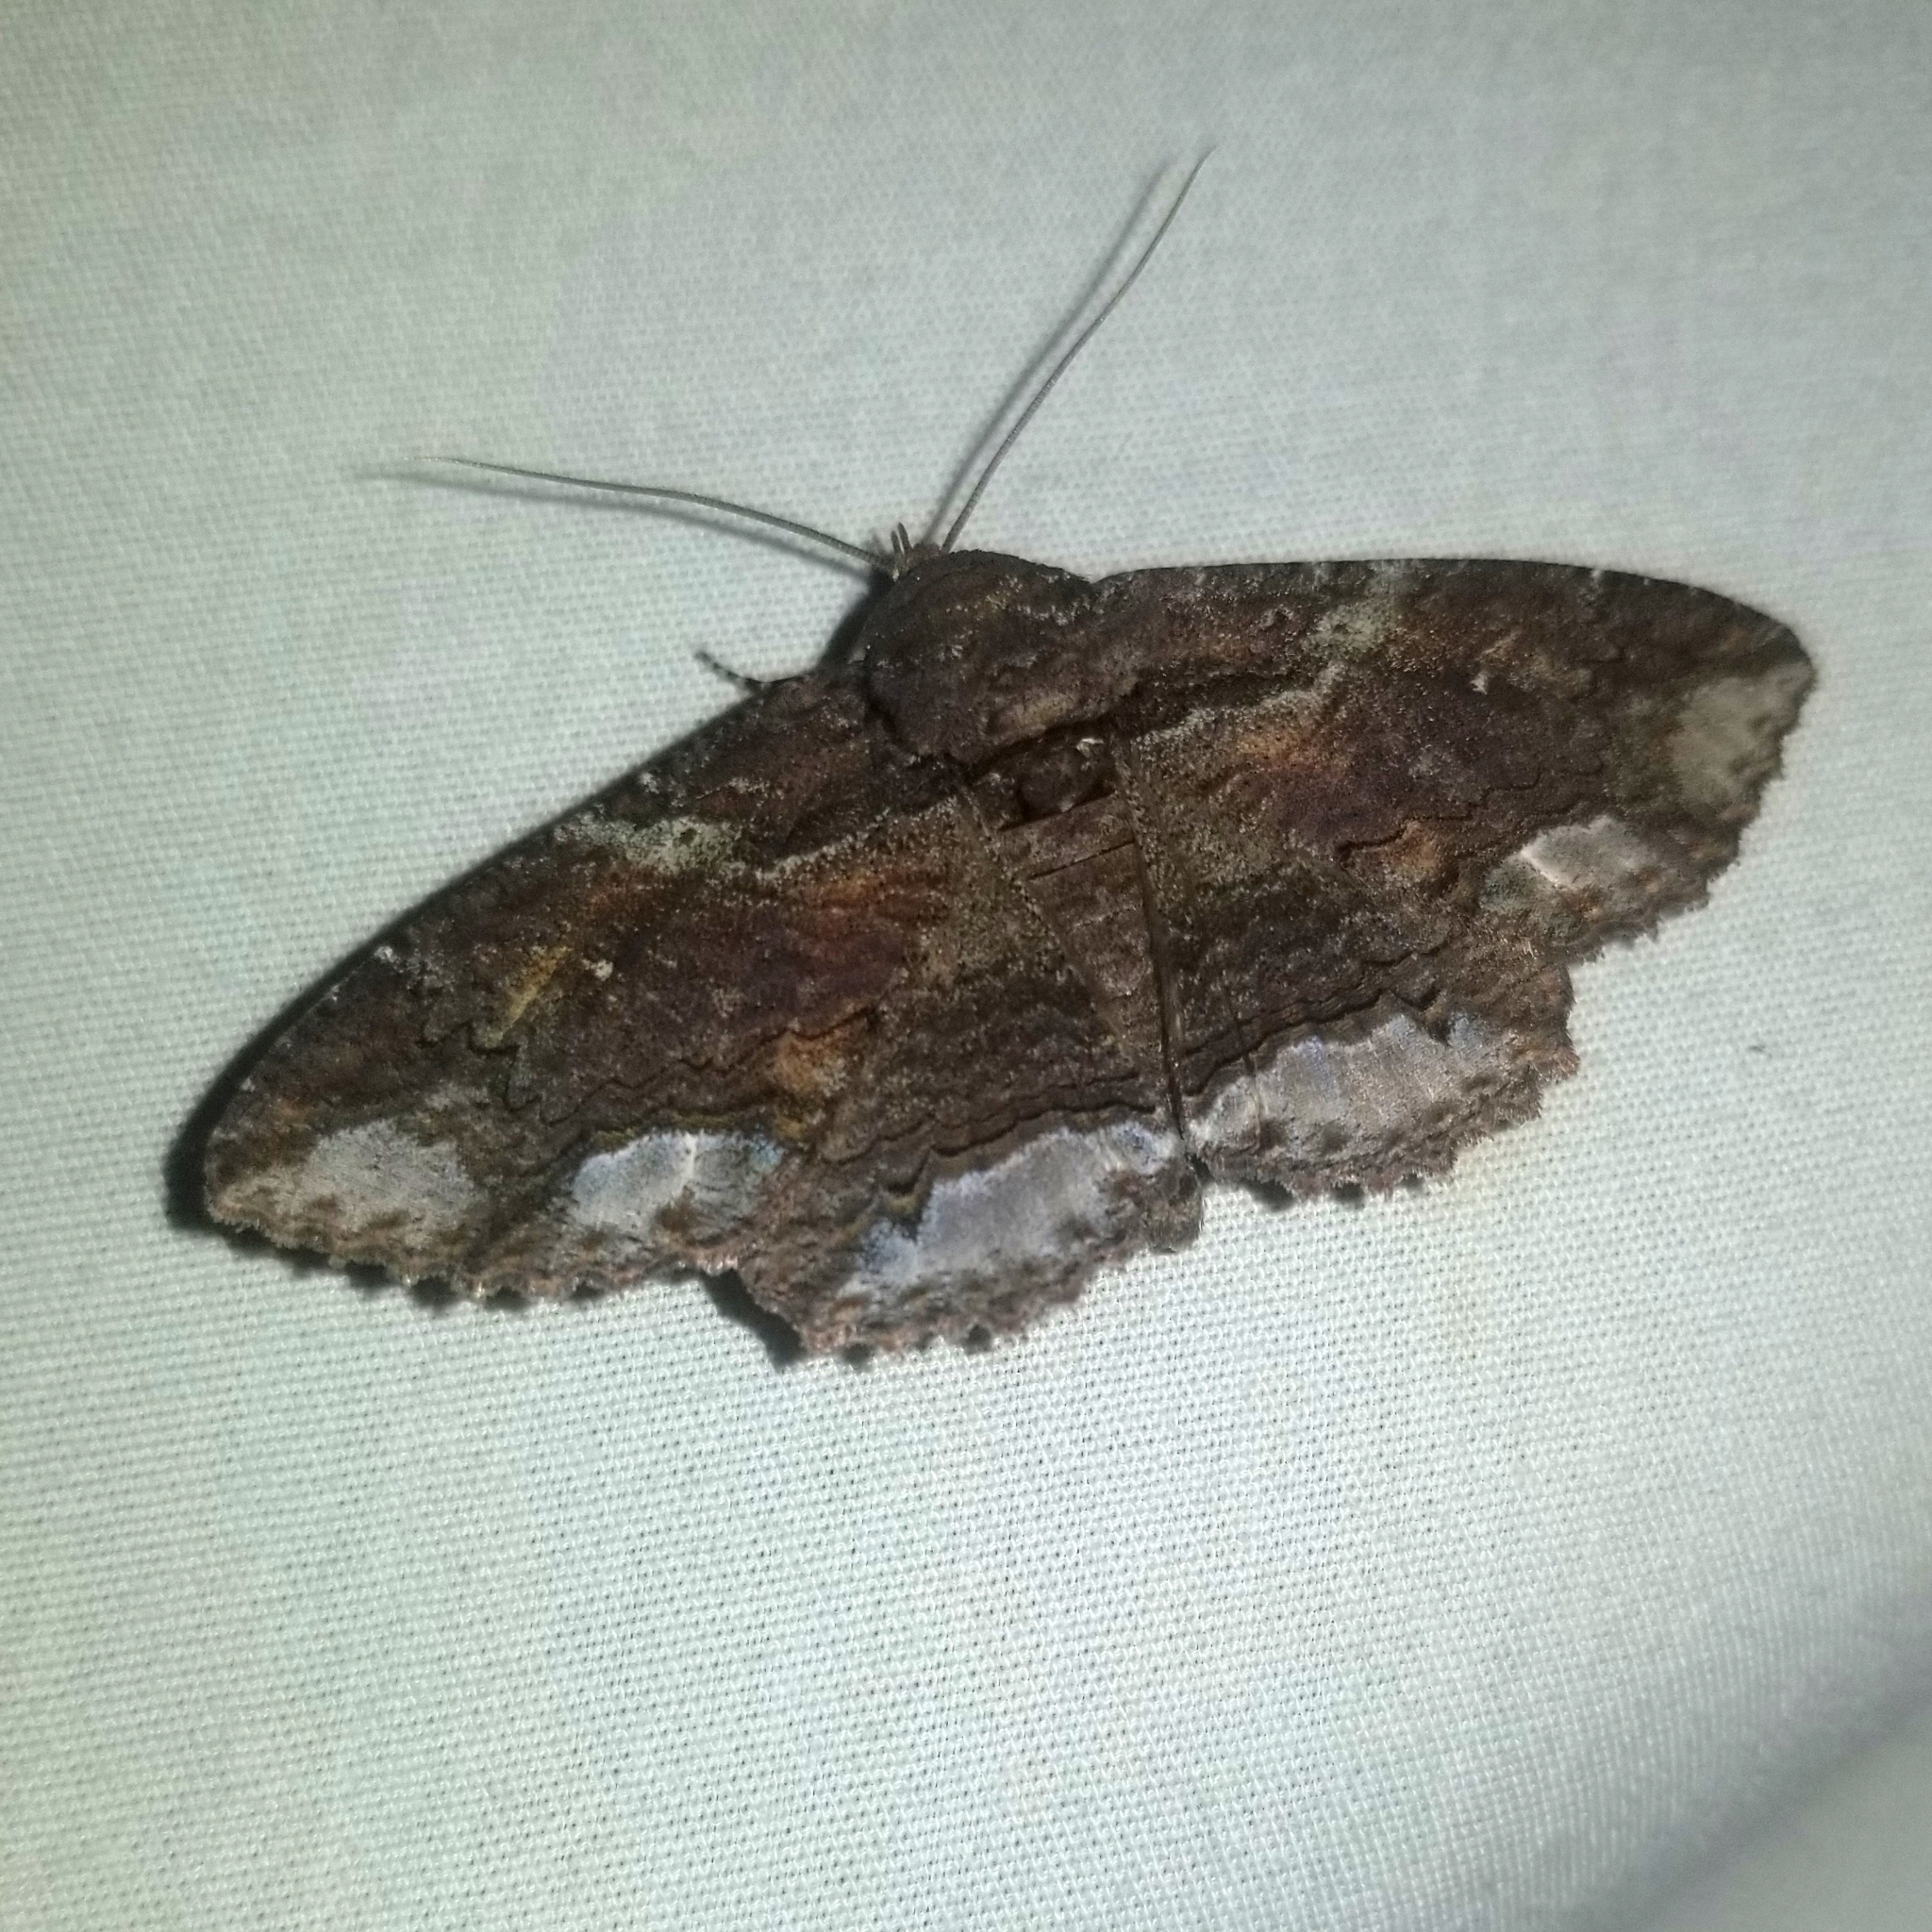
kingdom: Animalia
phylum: Arthropoda
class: Insecta
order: Lepidoptera
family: Erebidae
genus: Zale
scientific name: Zale lunata
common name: Lunate zale moth
